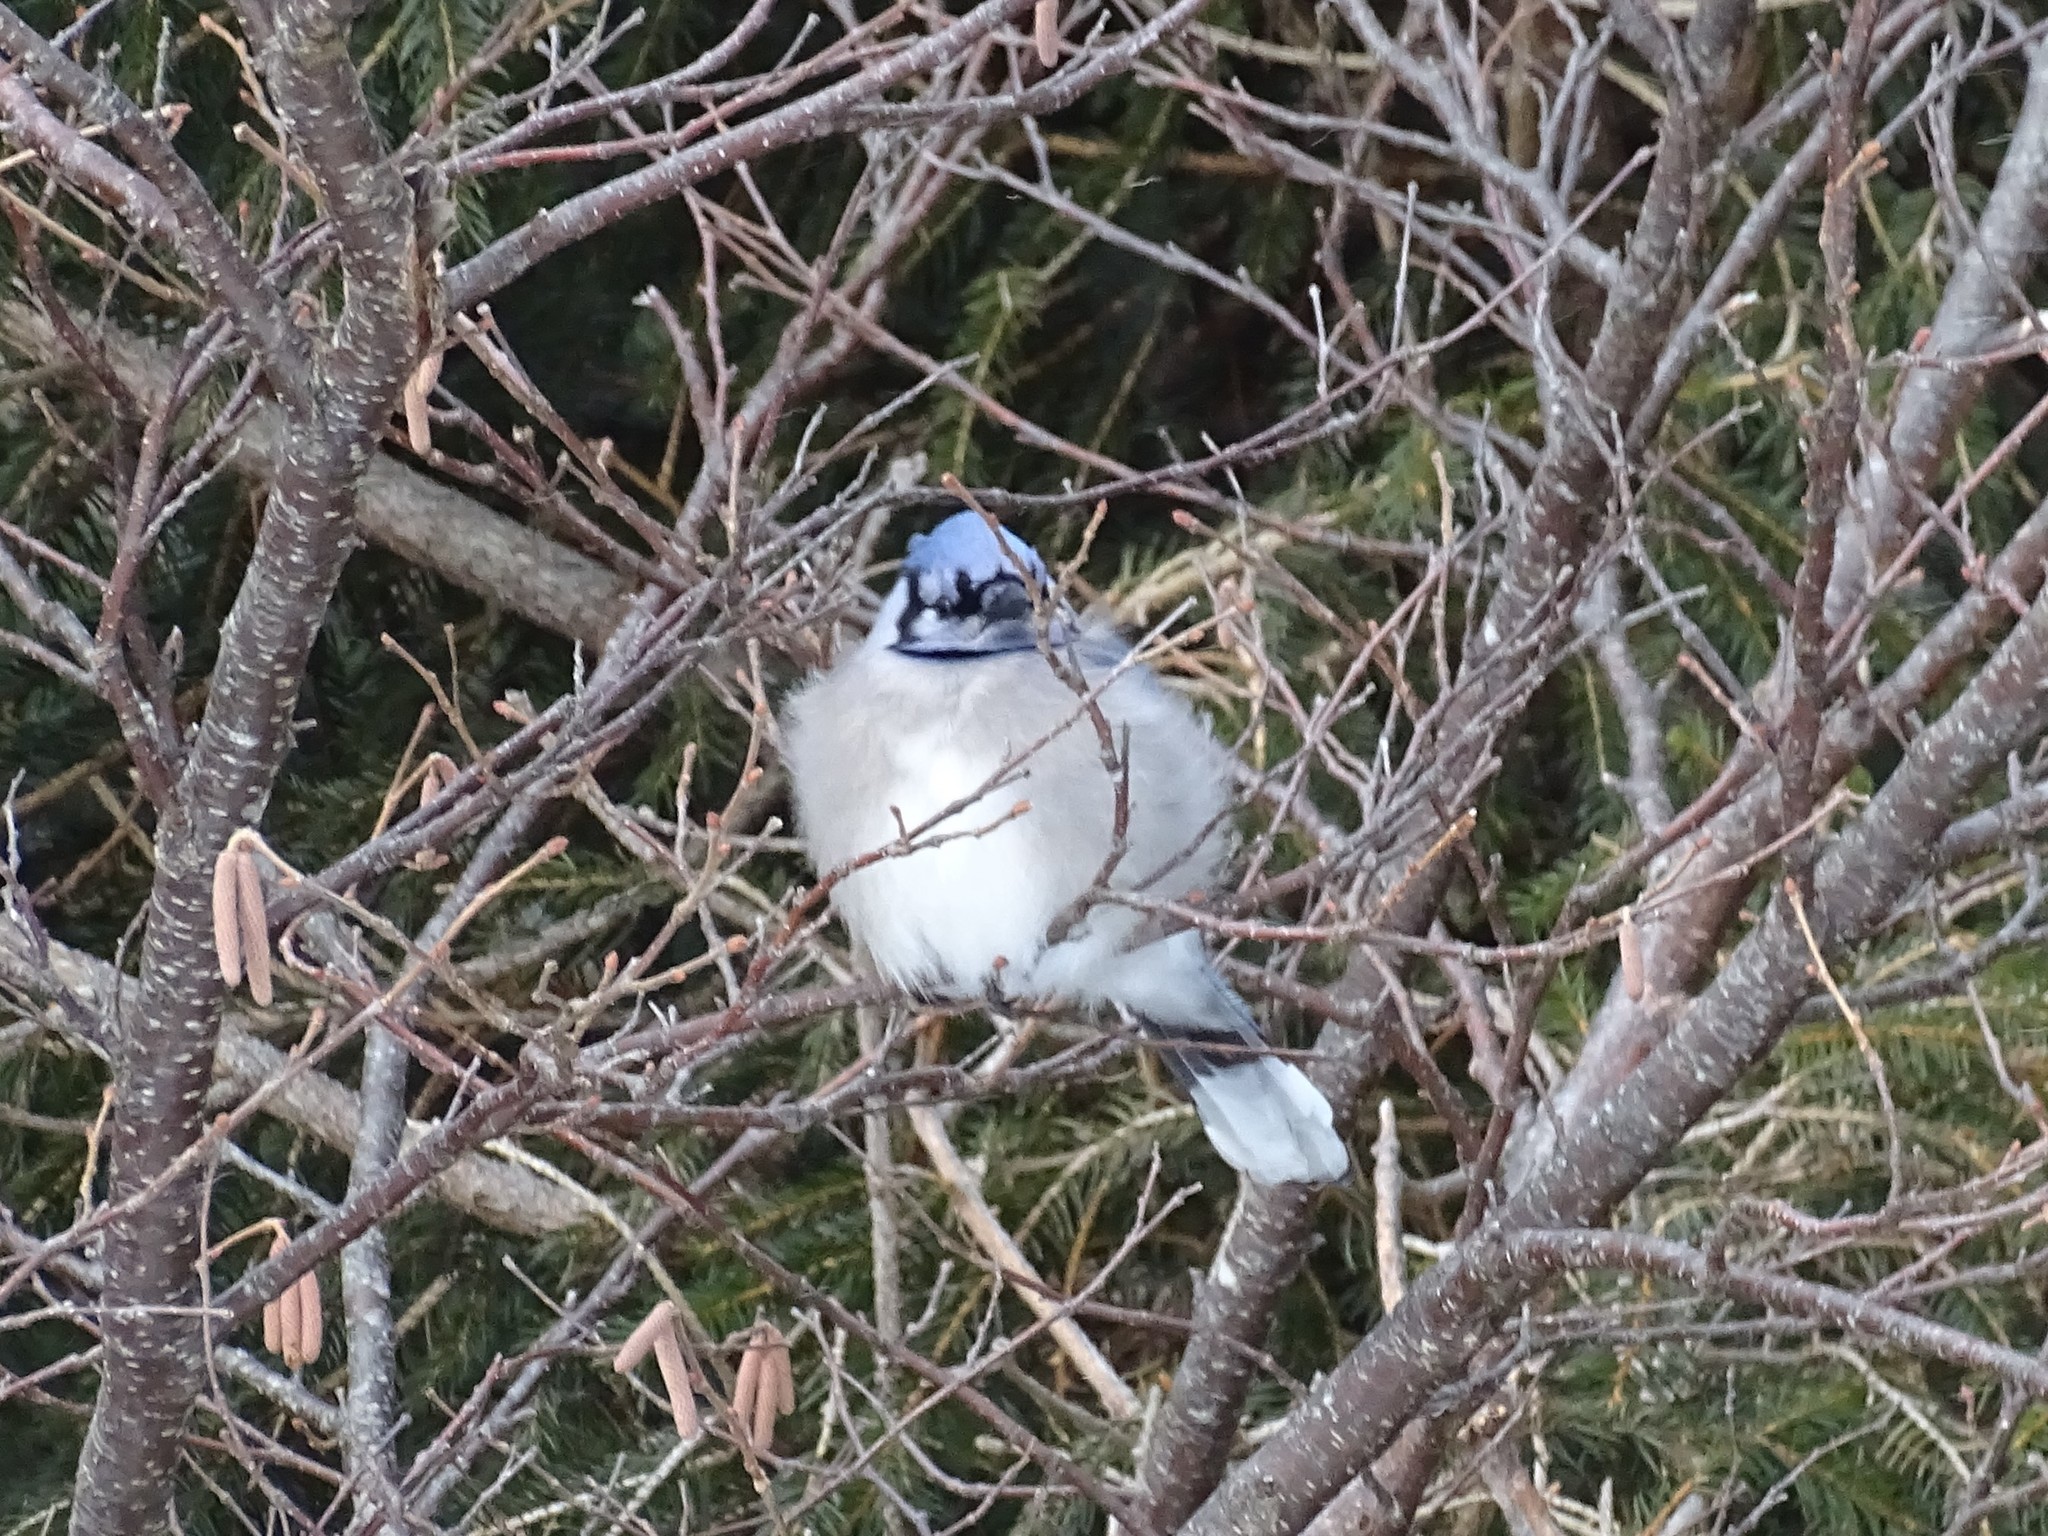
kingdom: Animalia
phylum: Chordata
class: Aves
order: Passeriformes
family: Corvidae
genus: Cyanocitta
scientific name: Cyanocitta cristata
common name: Blue jay
